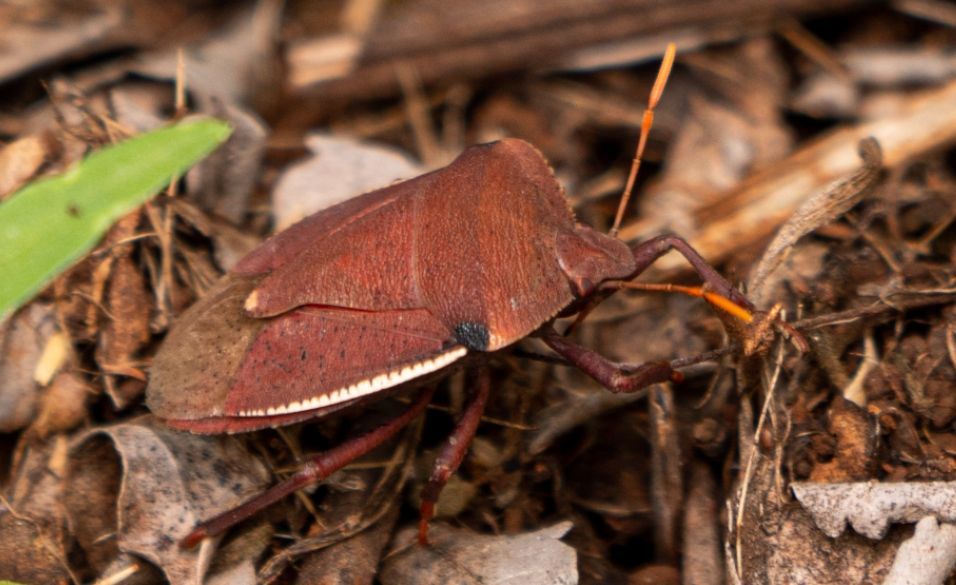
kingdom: Animalia
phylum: Arthropoda
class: Insecta
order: Hemiptera
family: Pentatomidae
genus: Basicryptus
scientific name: Basicryptus costalis
